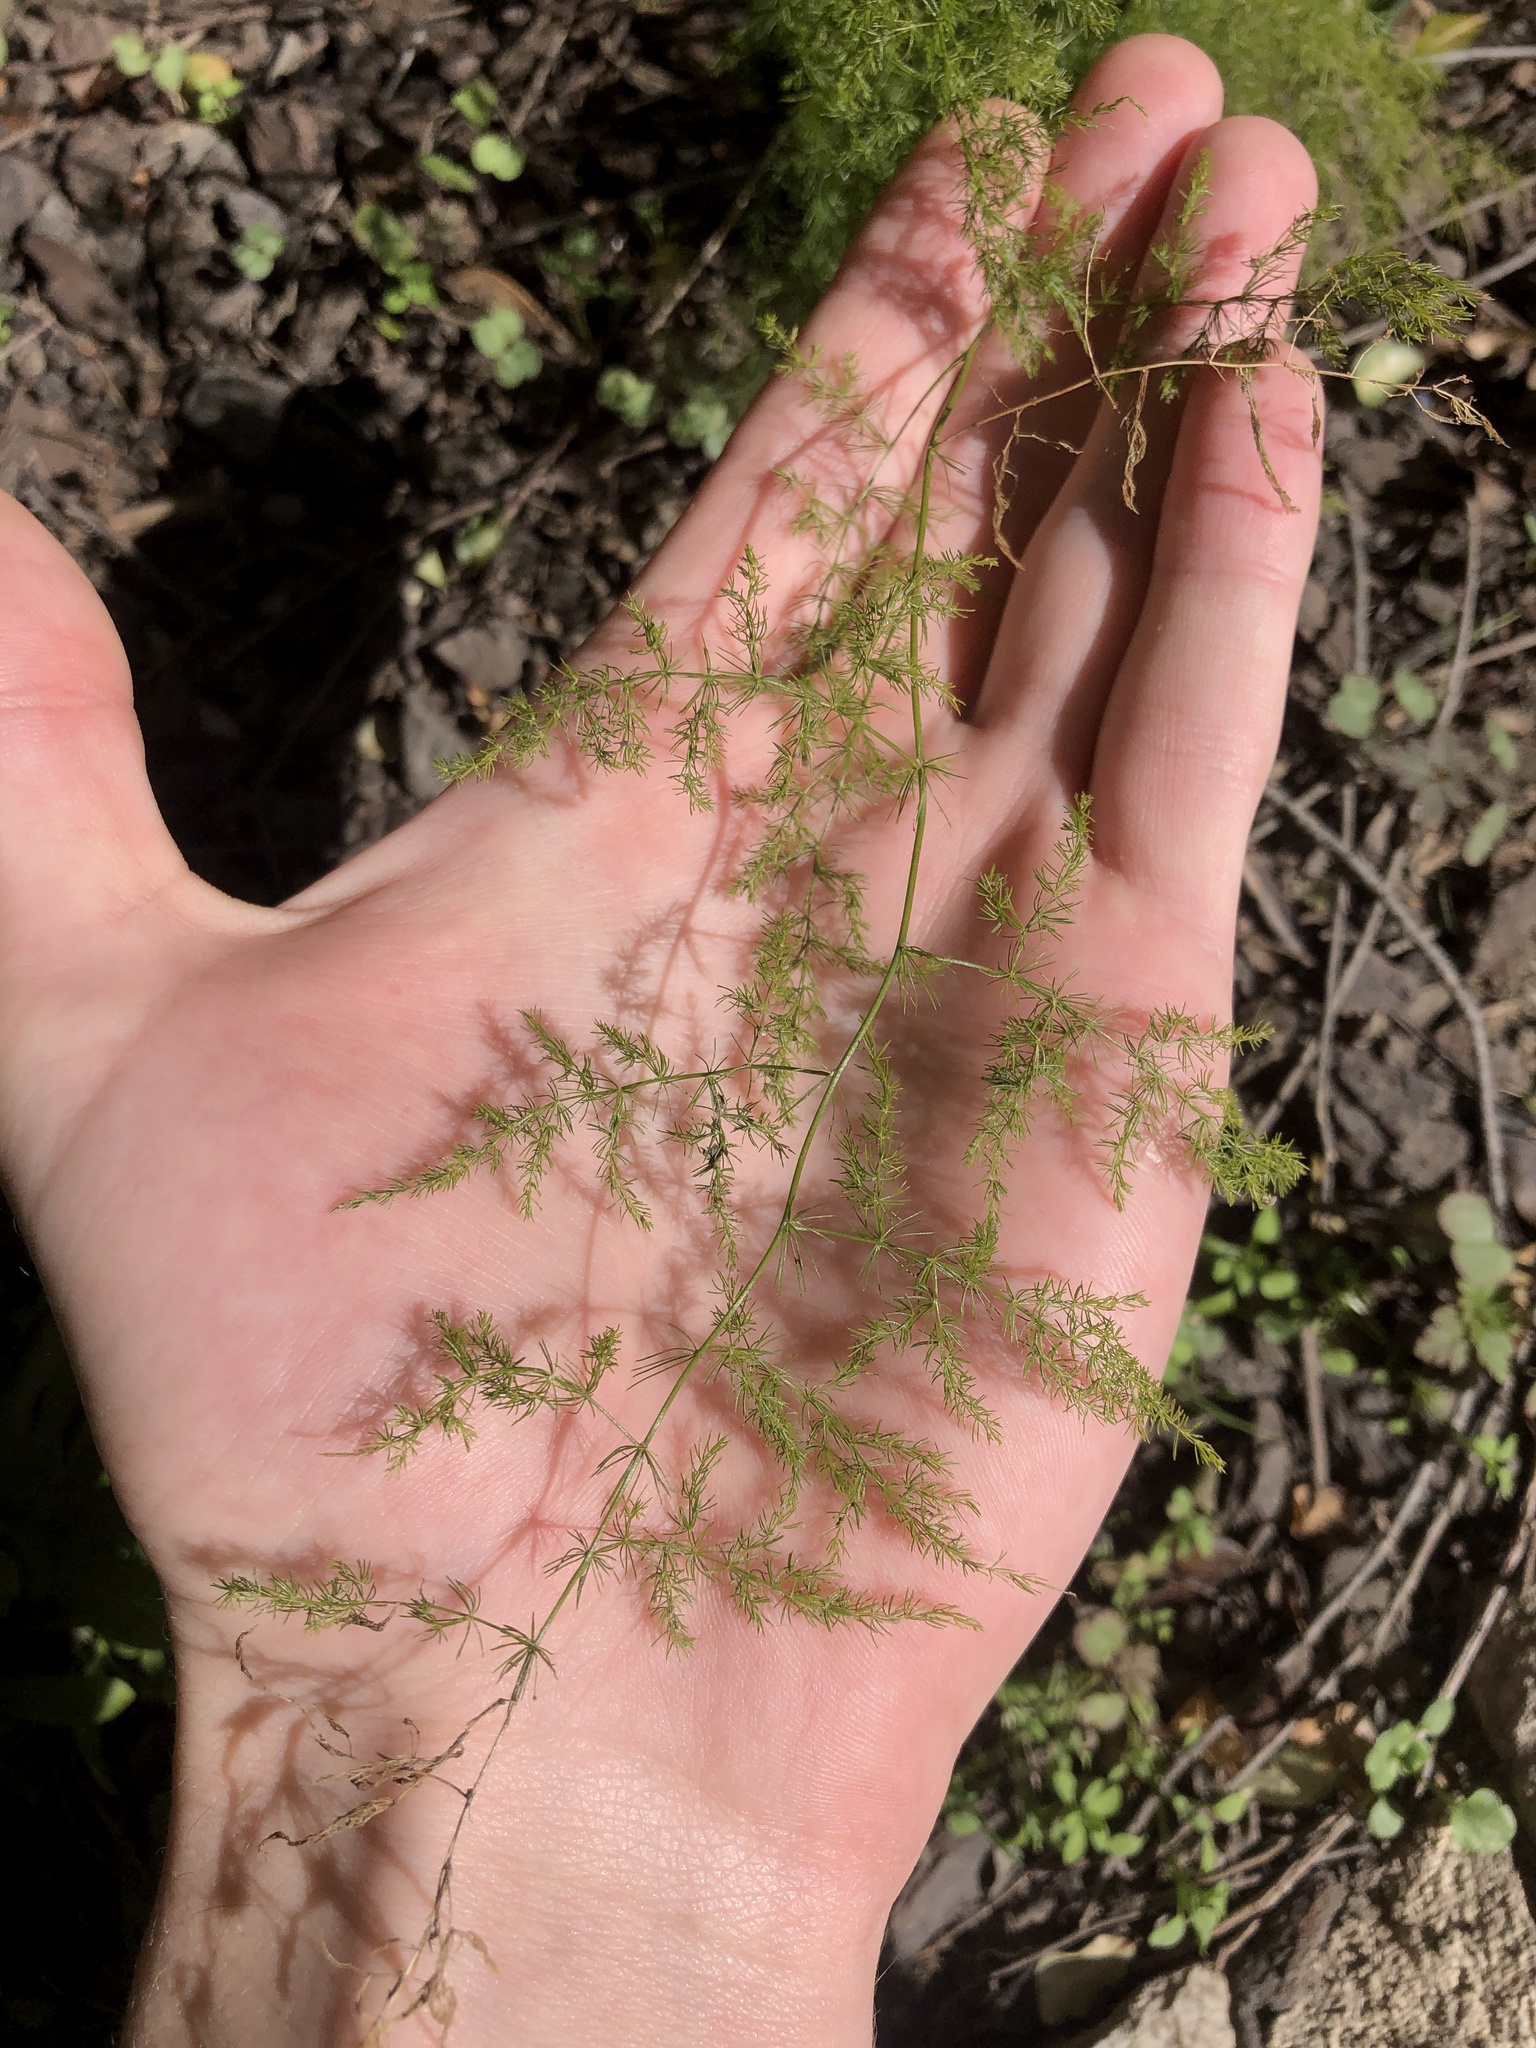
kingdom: Plantae
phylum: Tracheophyta
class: Liliopsida
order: Asparagales
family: Asparagaceae
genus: Asparagus
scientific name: Asparagus setaceus
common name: Common asparagus fern
